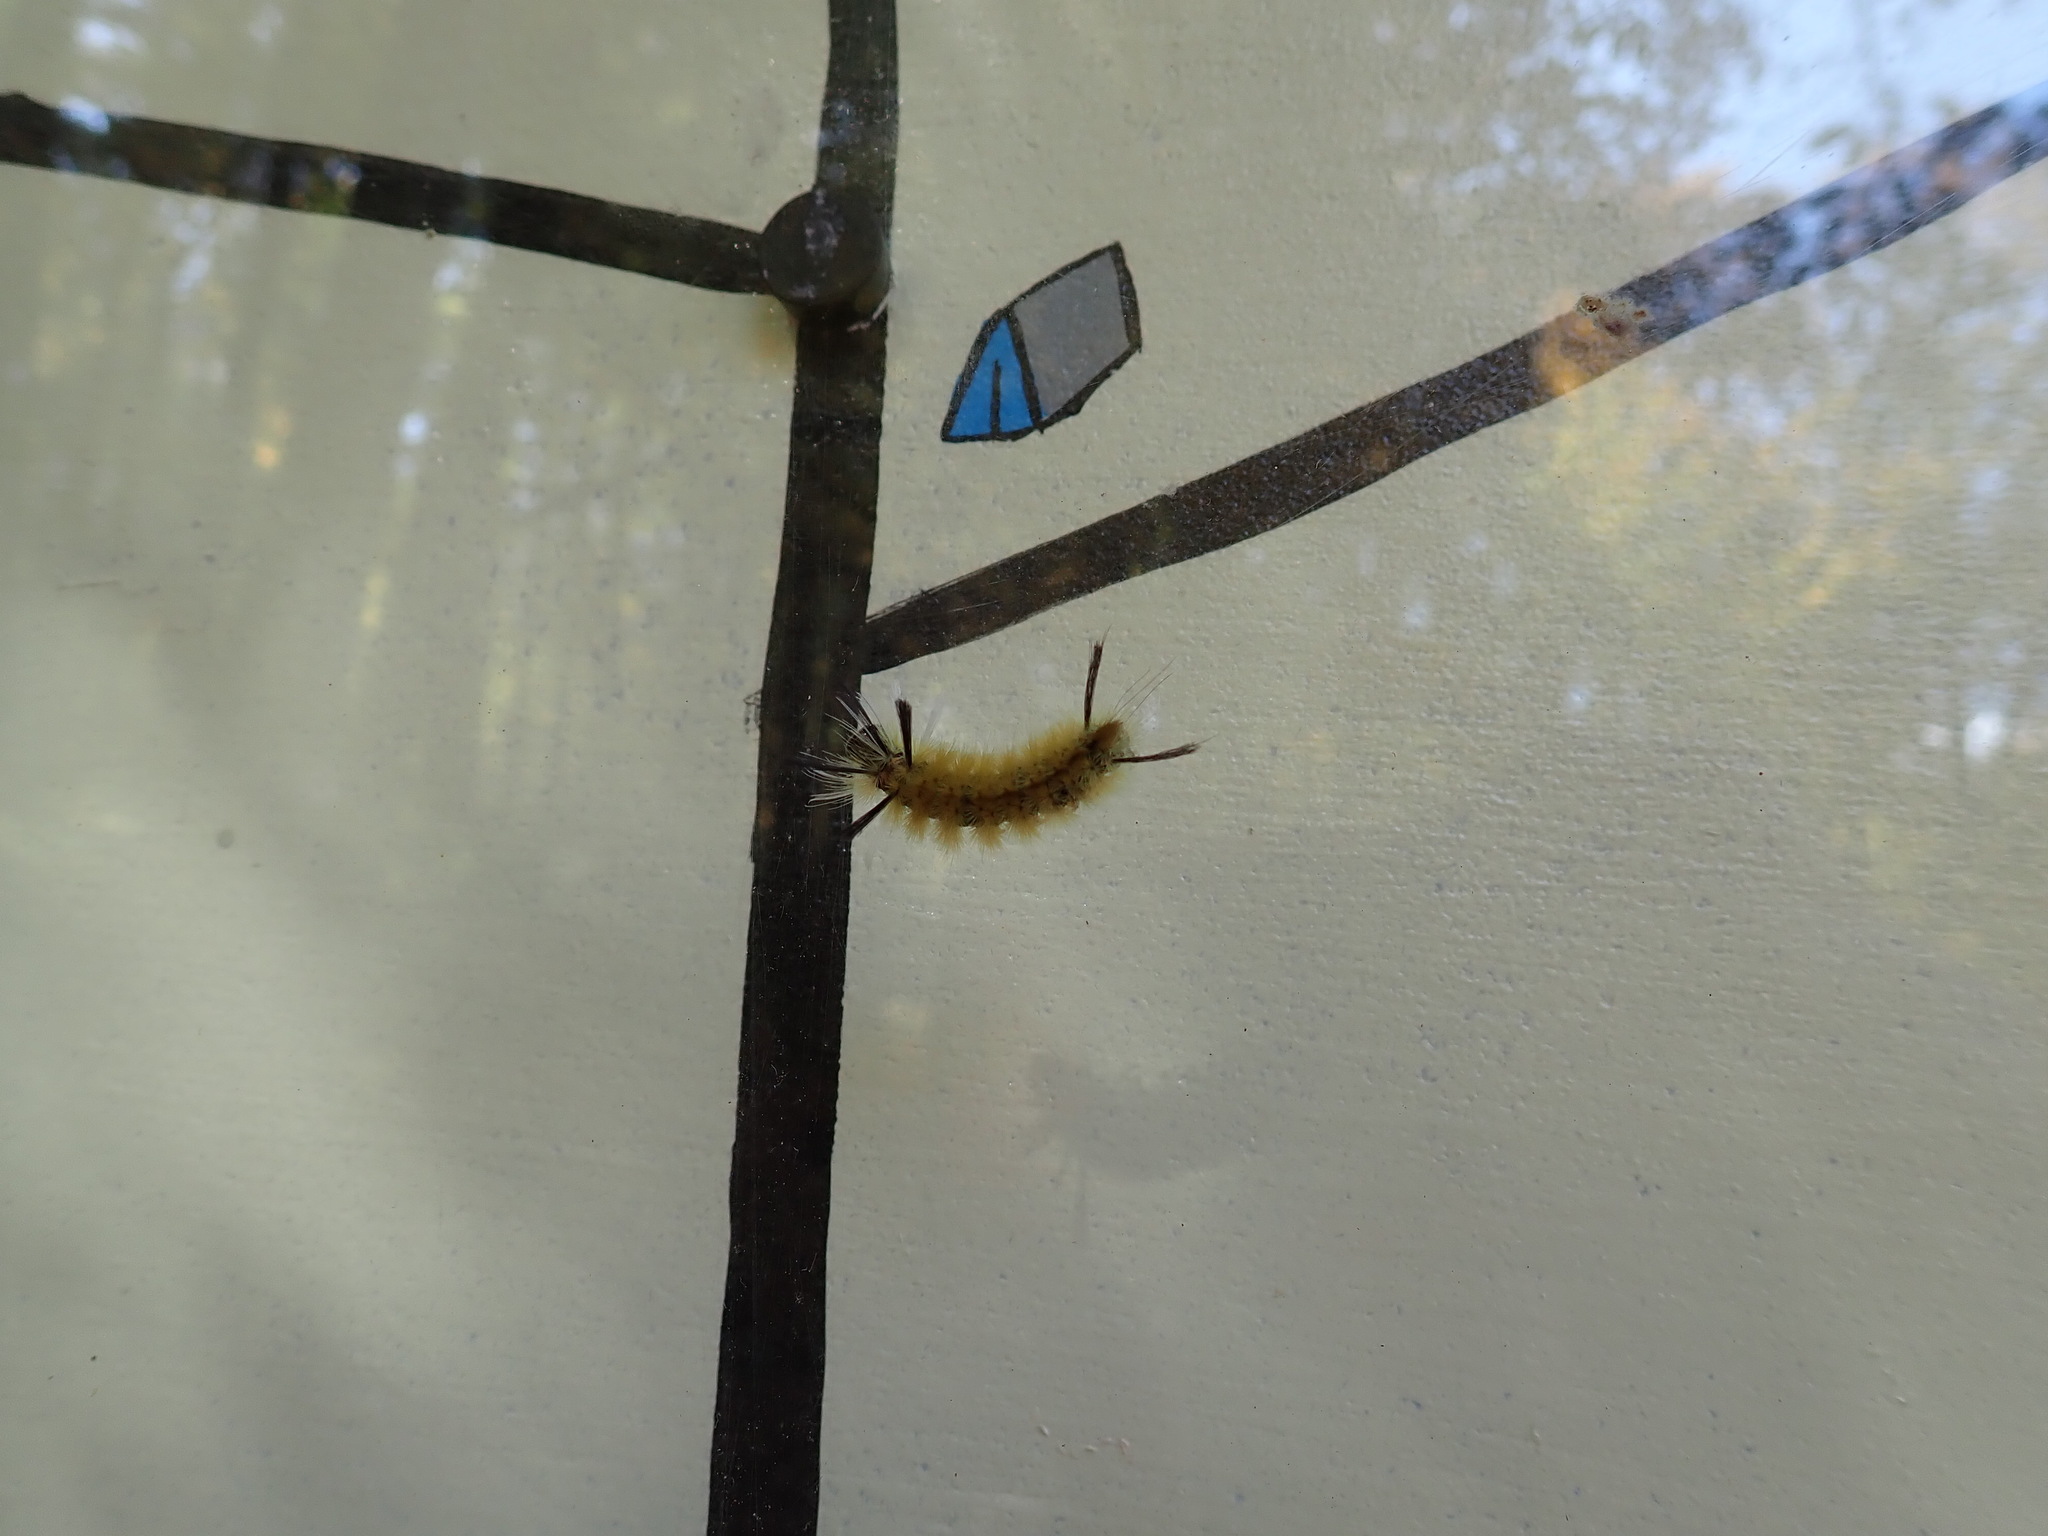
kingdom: Animalia
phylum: Arthropoda
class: Insecta
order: Lepidoptera
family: Erebidae
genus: Halysidota
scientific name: Halysidota tessellaris
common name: Banded tussock moth
